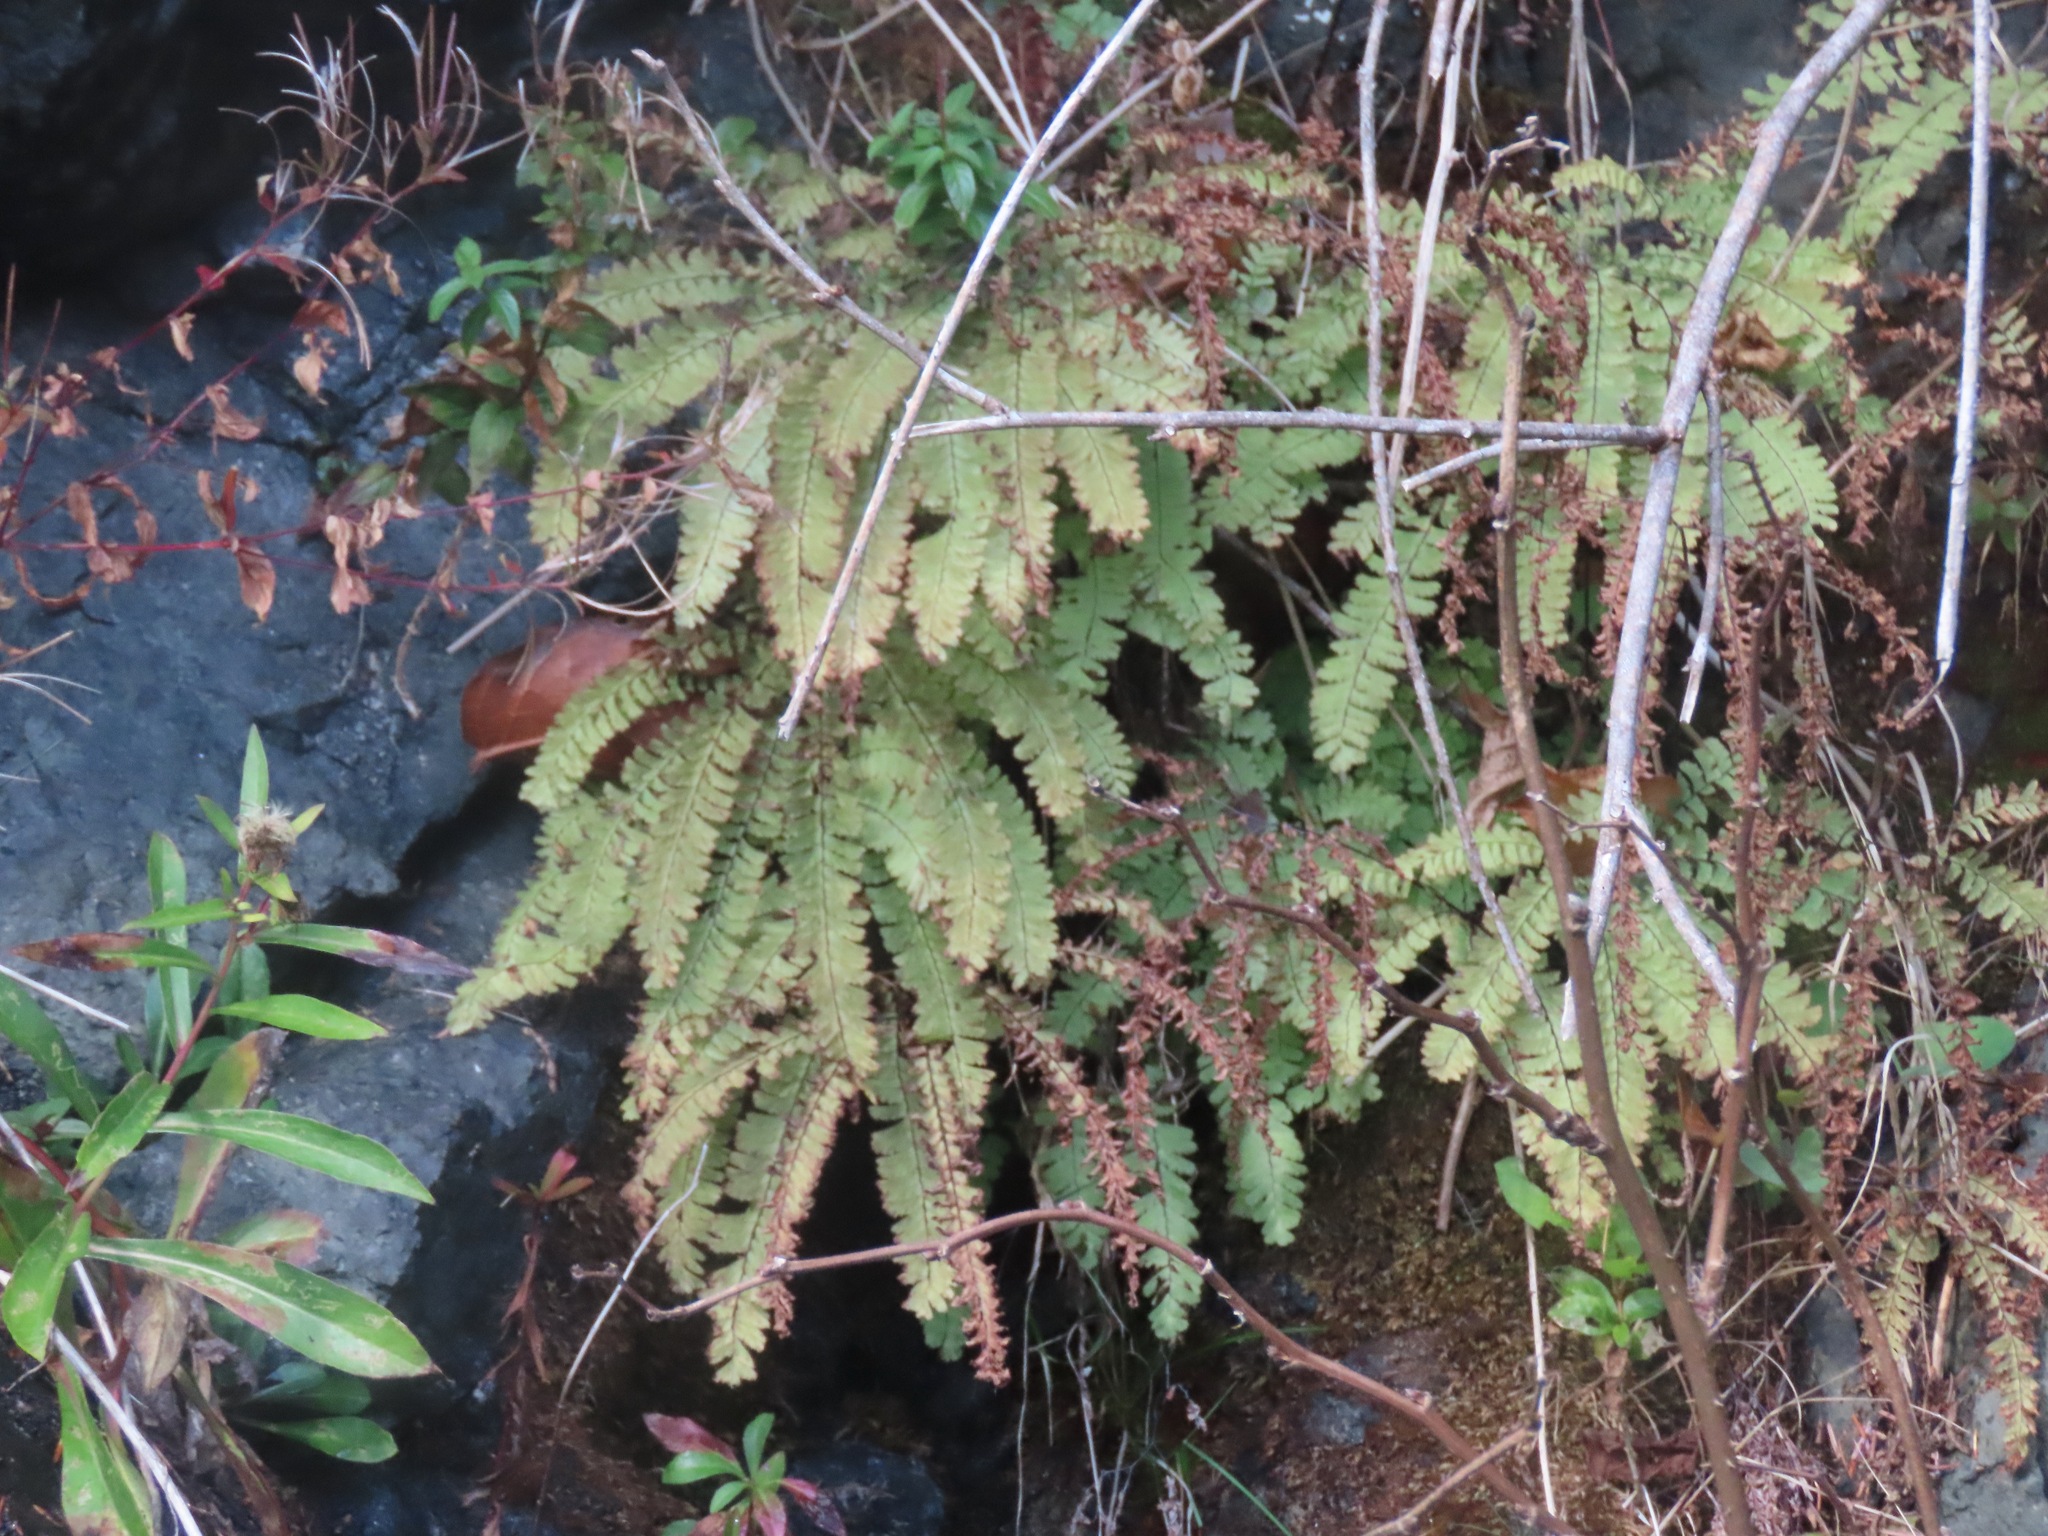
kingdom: Plantae
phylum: Tracheophyta
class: Polypodiopsida
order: Polypodiales
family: Pteridaceae
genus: Adiantum
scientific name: Adiantum aleuticum
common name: Aleutian maidenhair fern
